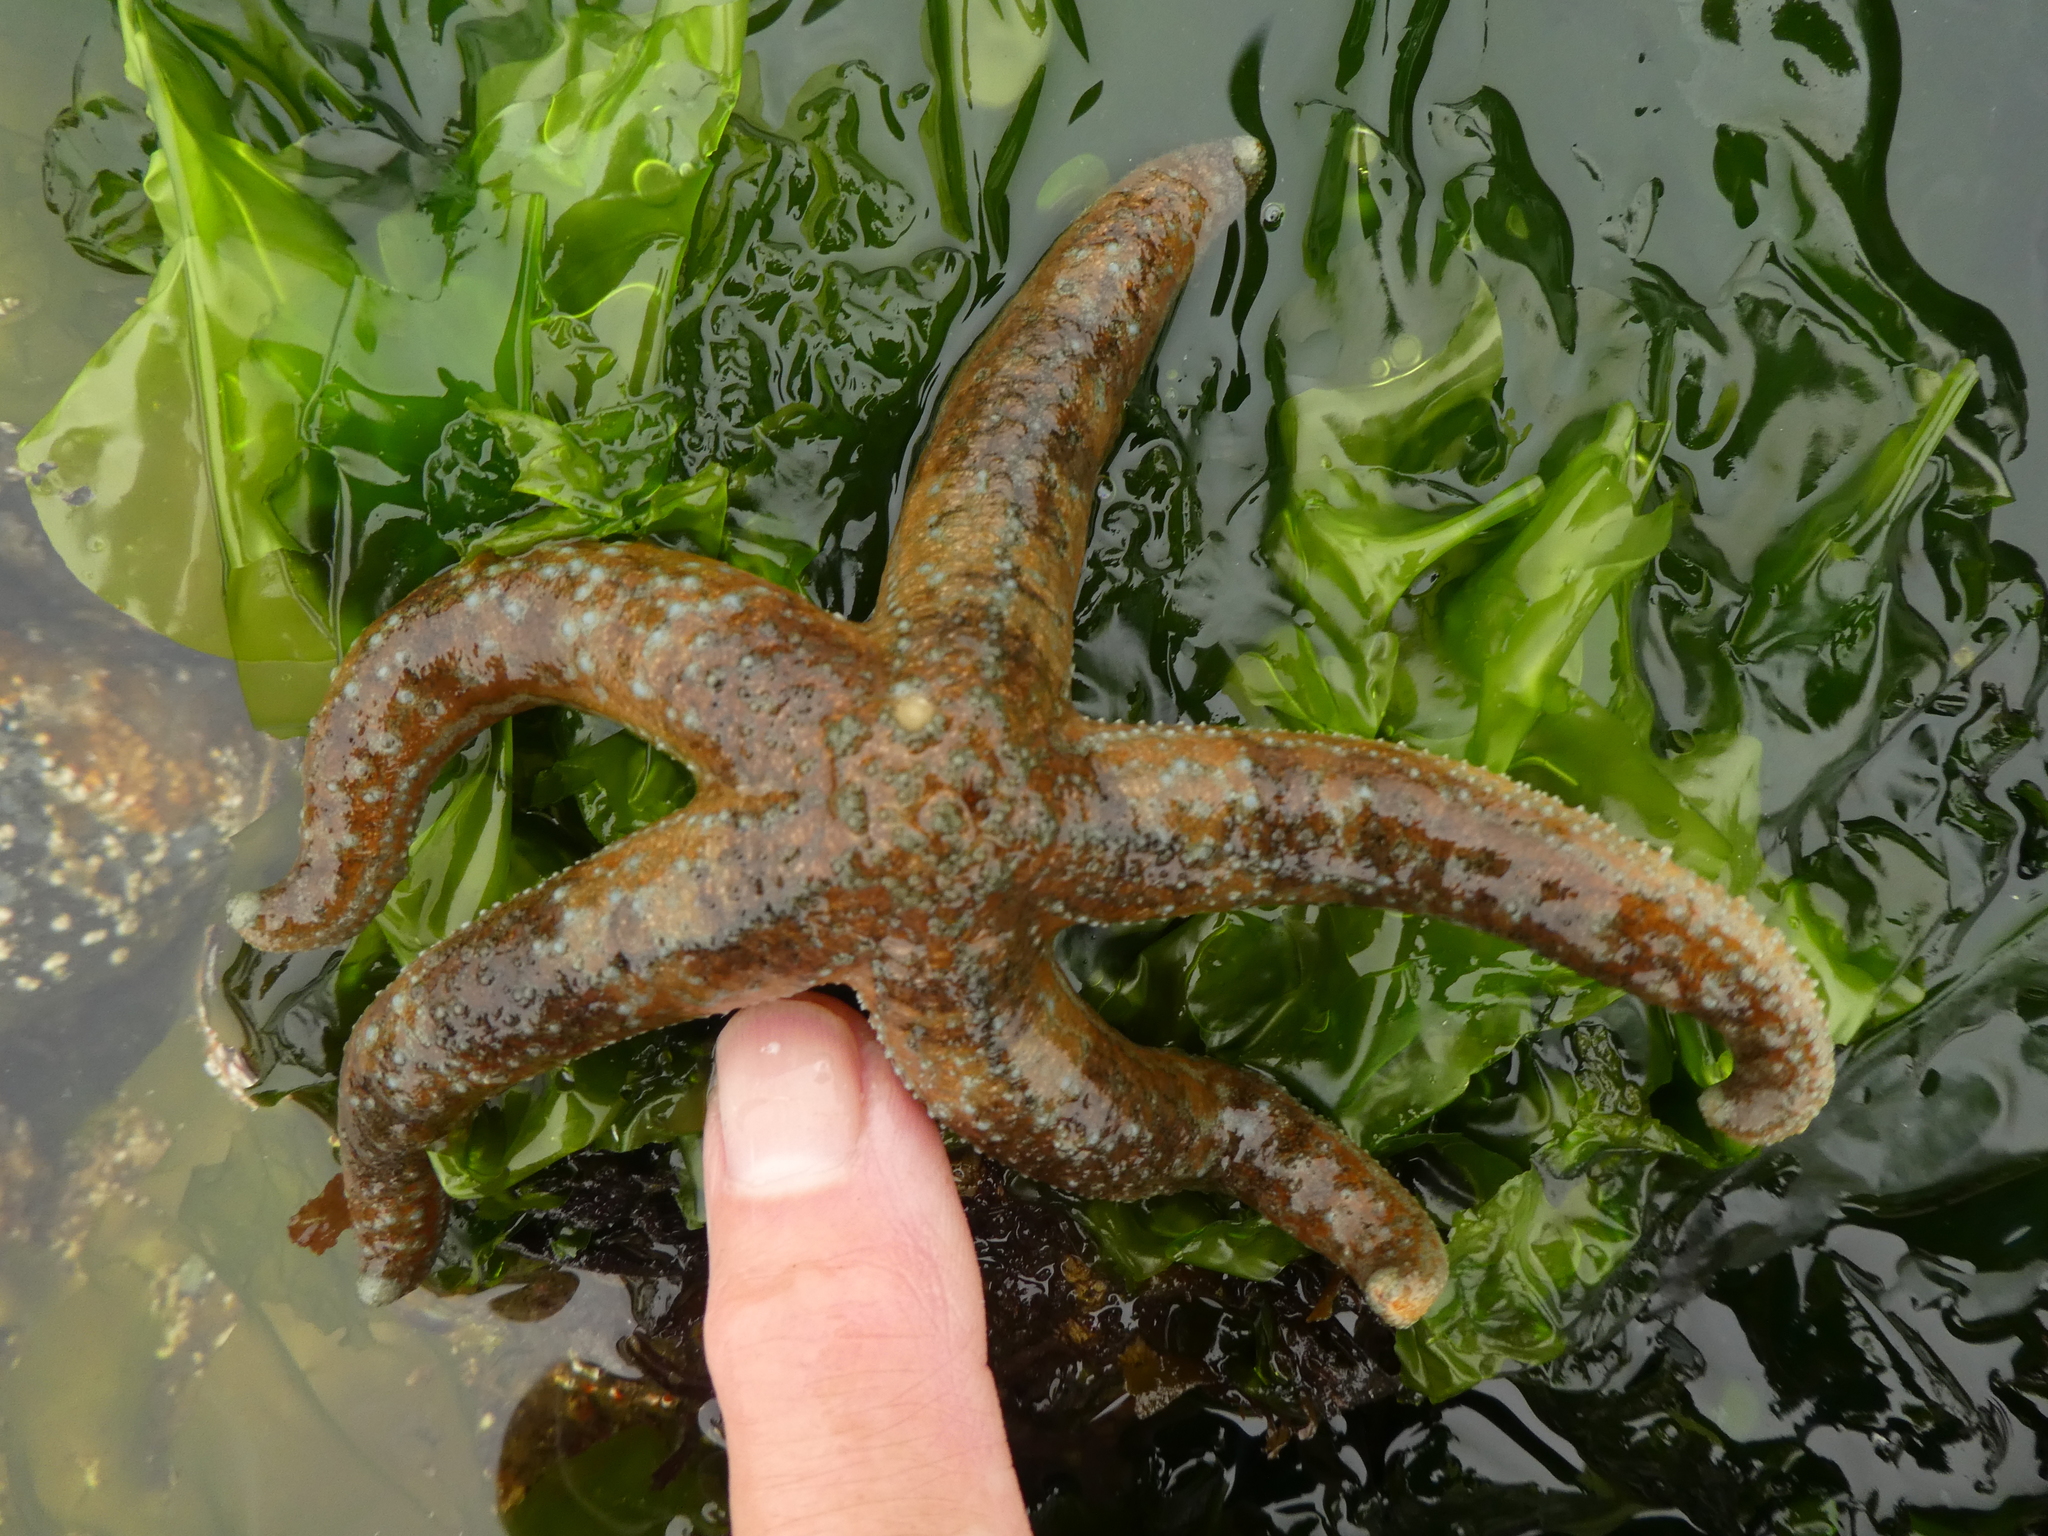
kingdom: Animalia
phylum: Echinodermata
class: Asteroidea
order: Forcipulatida
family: Asteriidae
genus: Evasterias
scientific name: Evasterias troschelii
